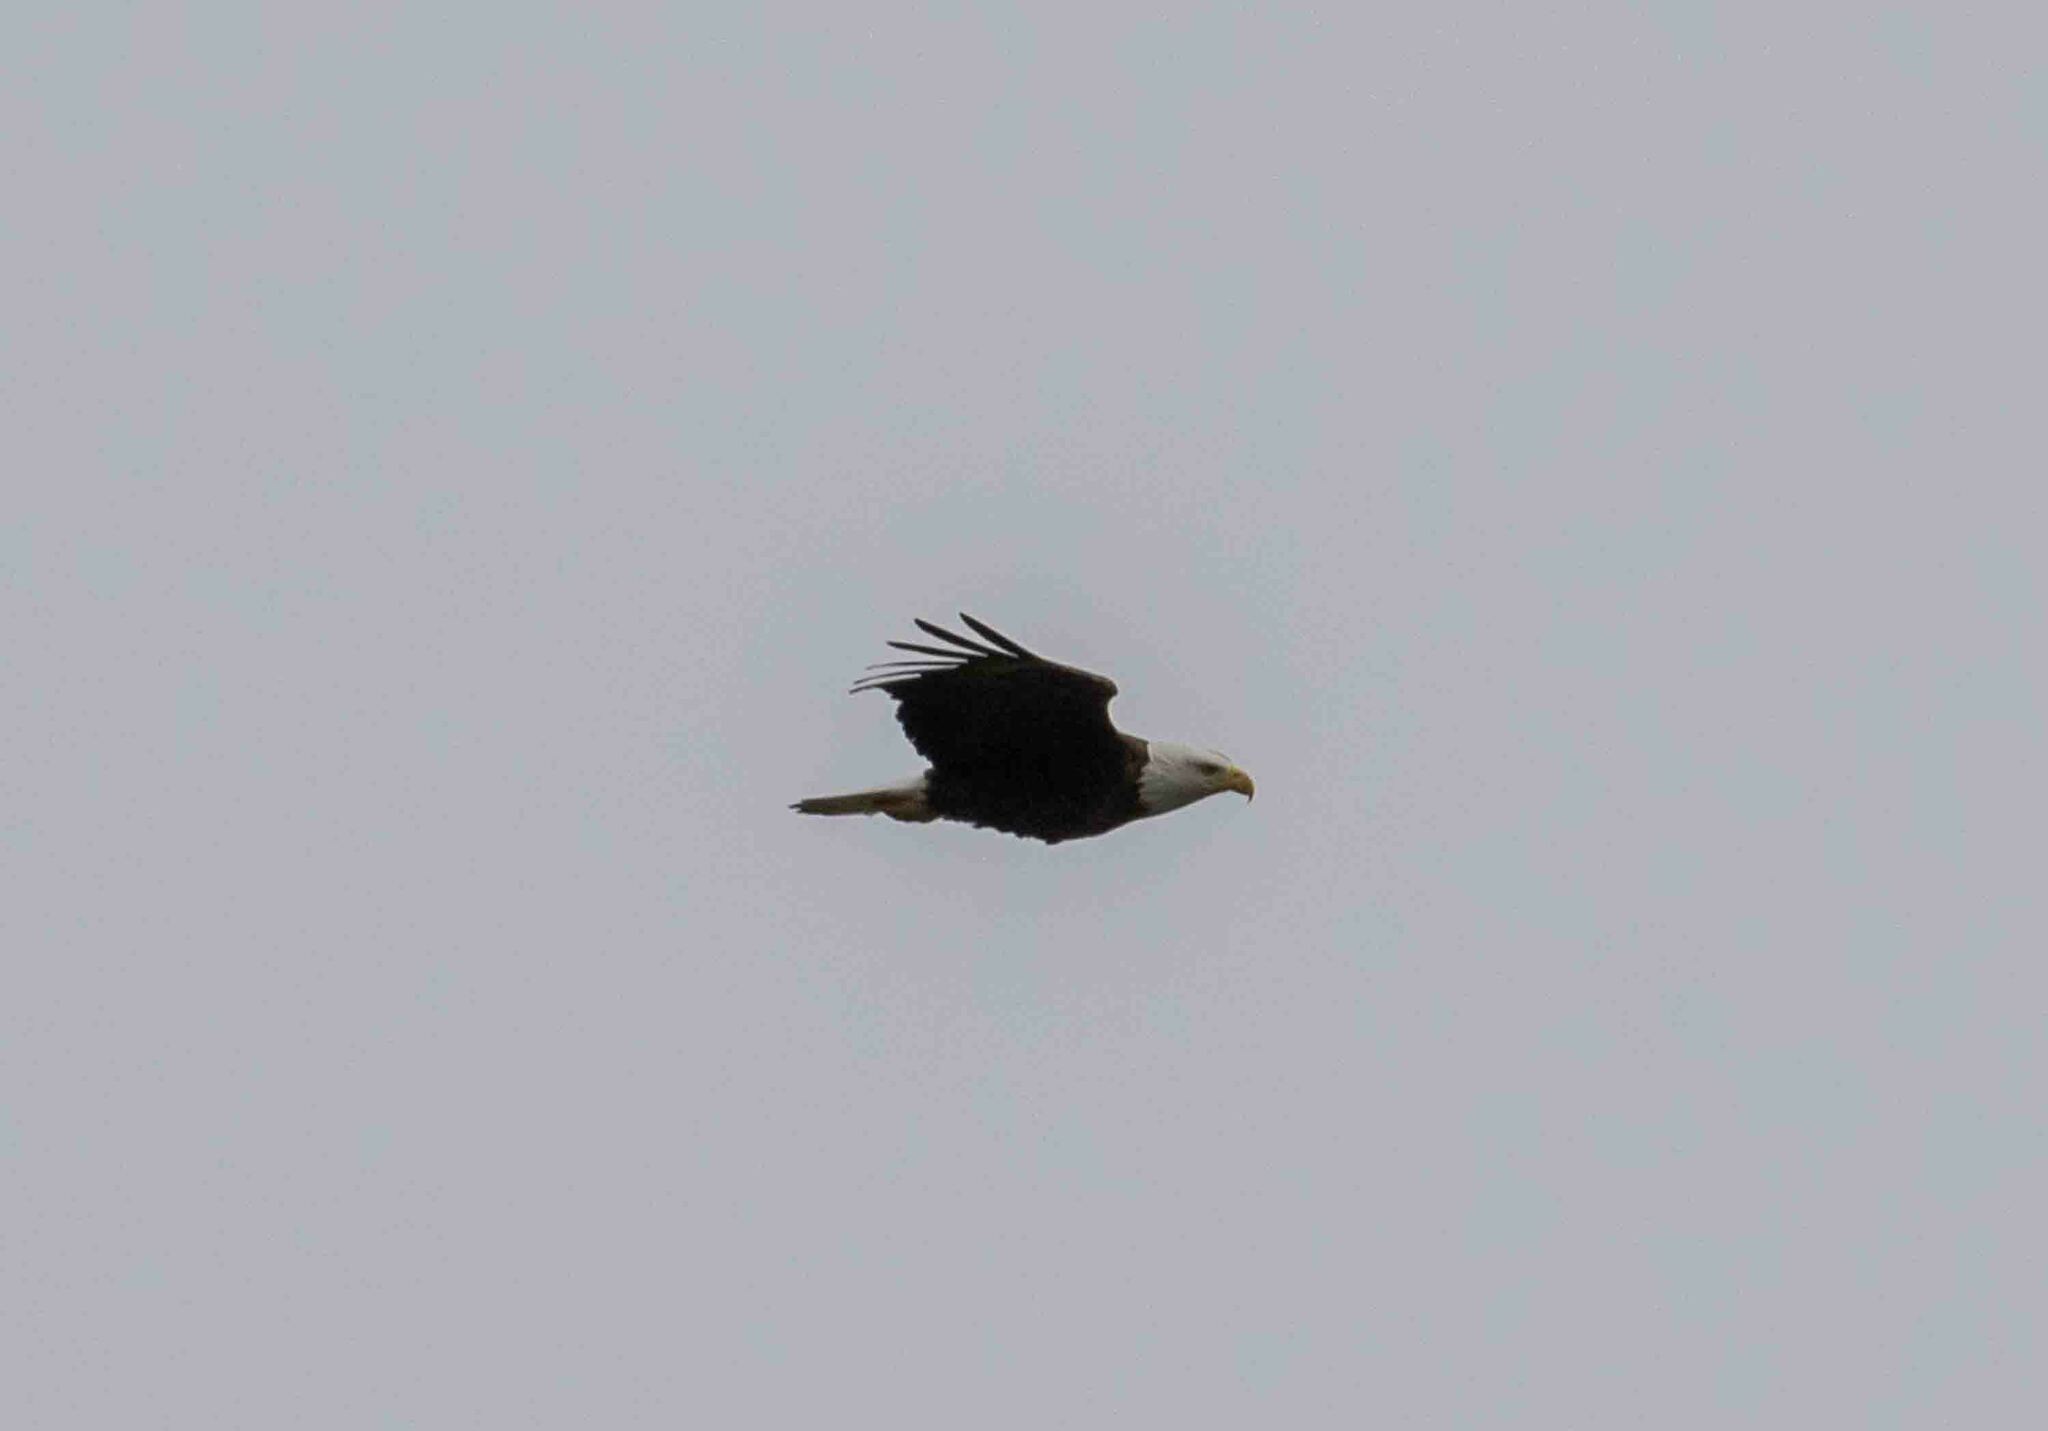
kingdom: Animalia
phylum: Chordata
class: Aves
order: Accipitriformes
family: Accipitridae
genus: Haliaeetus
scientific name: Haliaeetus leucocephalus
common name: Bald eagle
